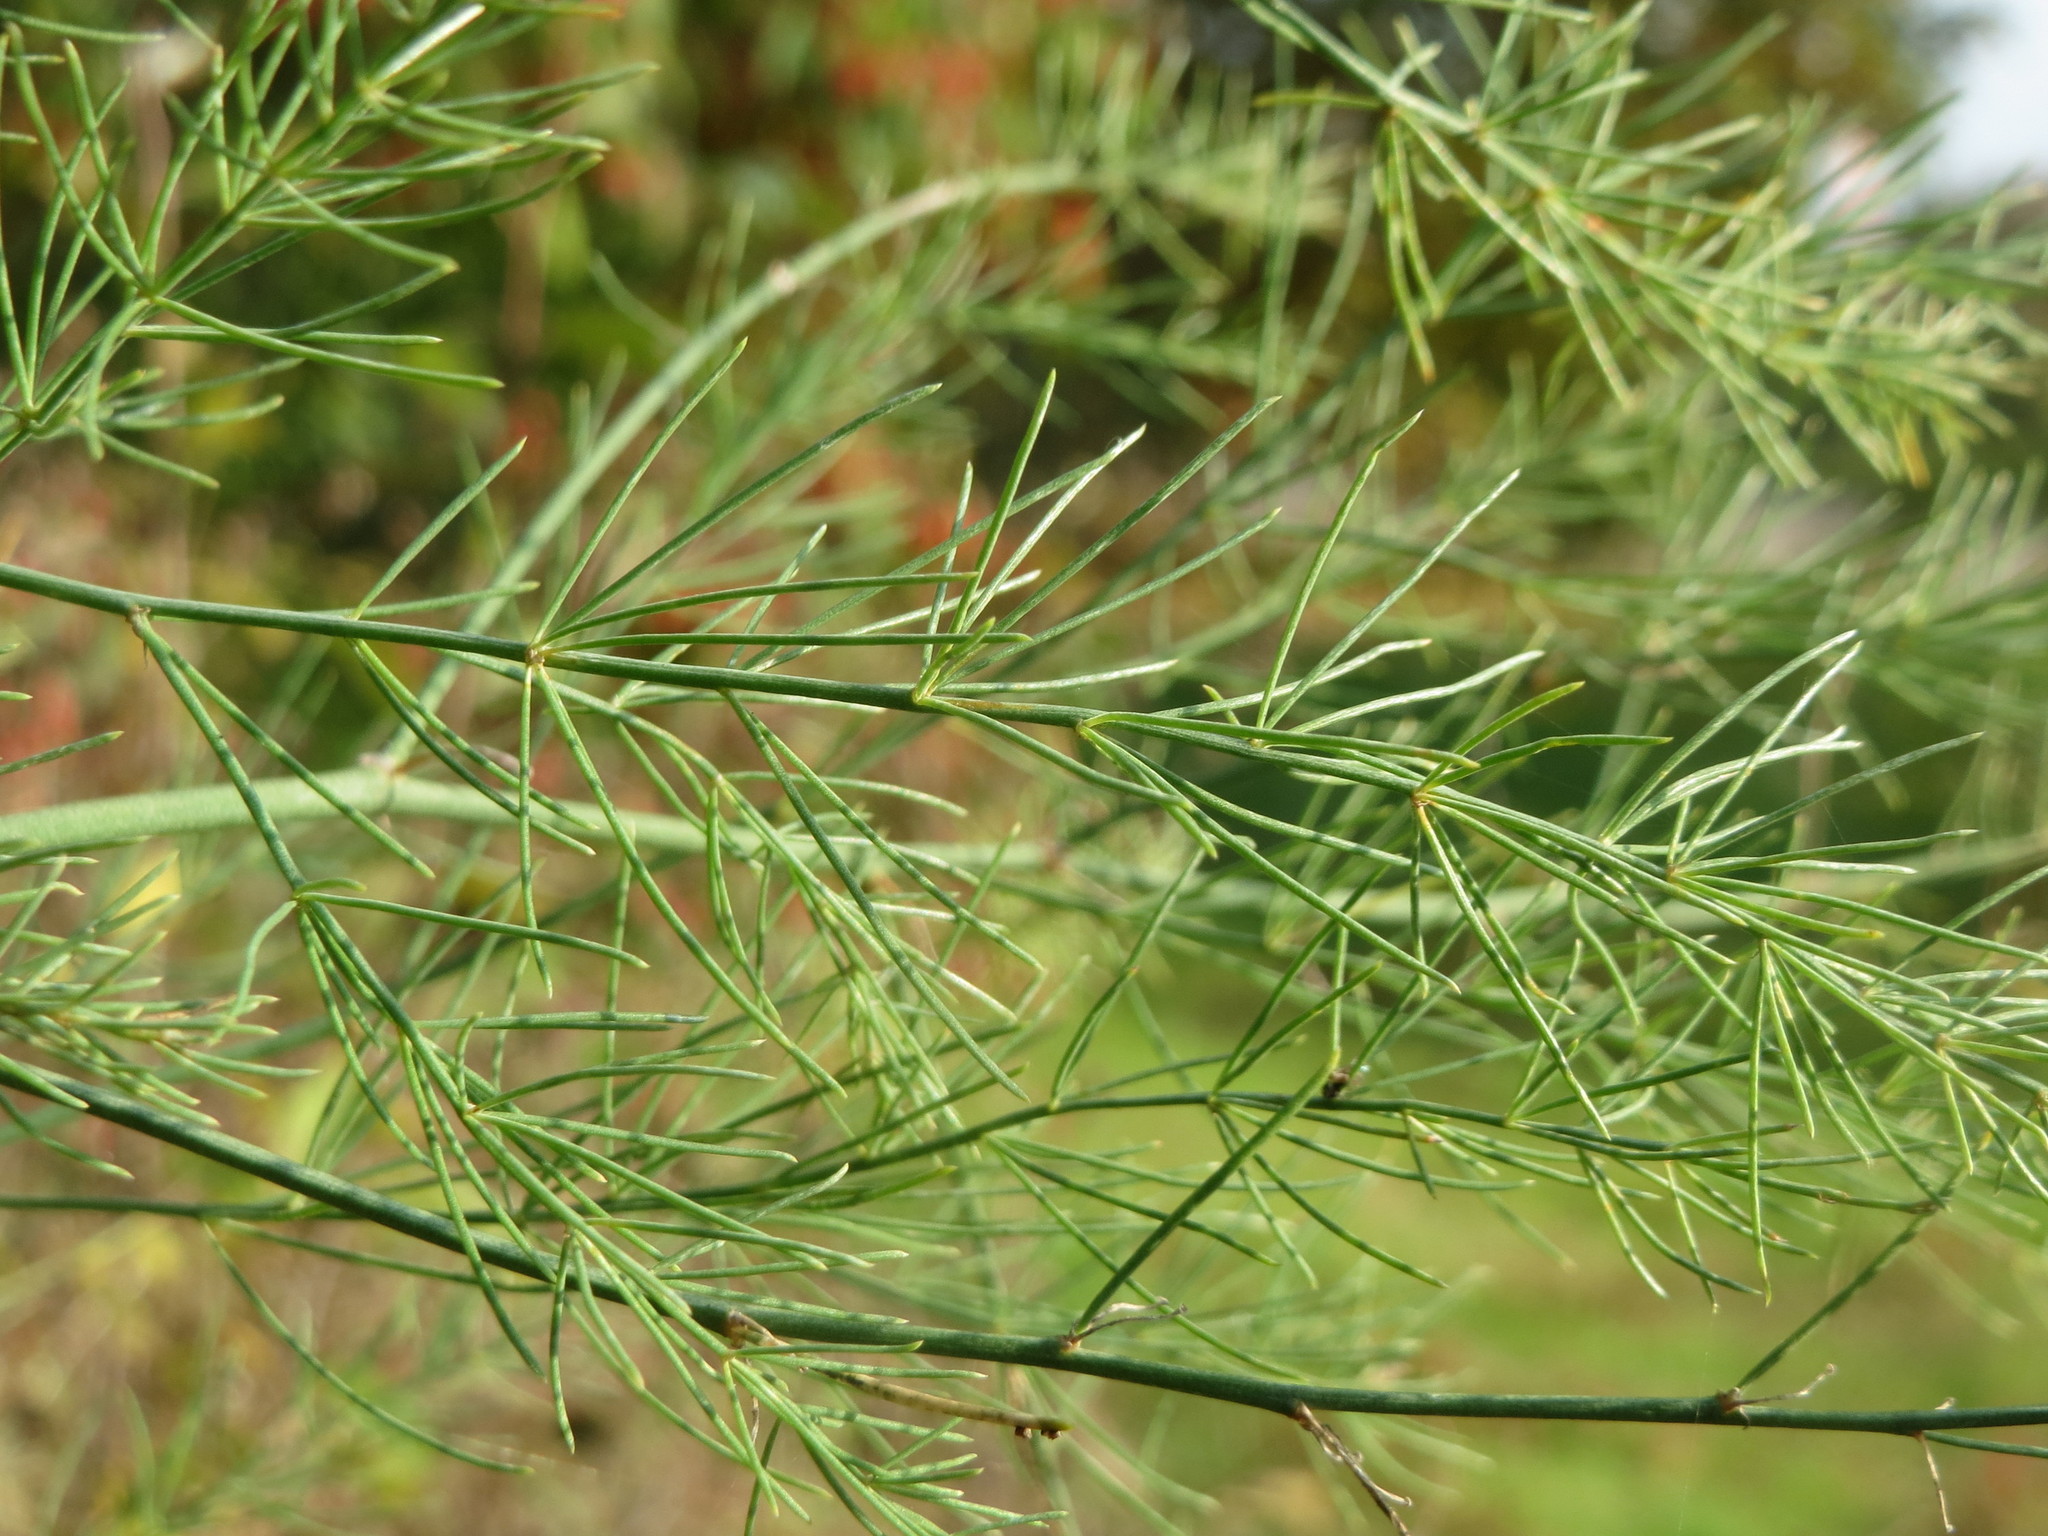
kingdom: Plantae
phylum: Tracheophyta
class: Liliopsida
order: Asparagales
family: Asparagaceae
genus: Asparagus
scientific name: Asparagus officinalis
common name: Garden asparagus
